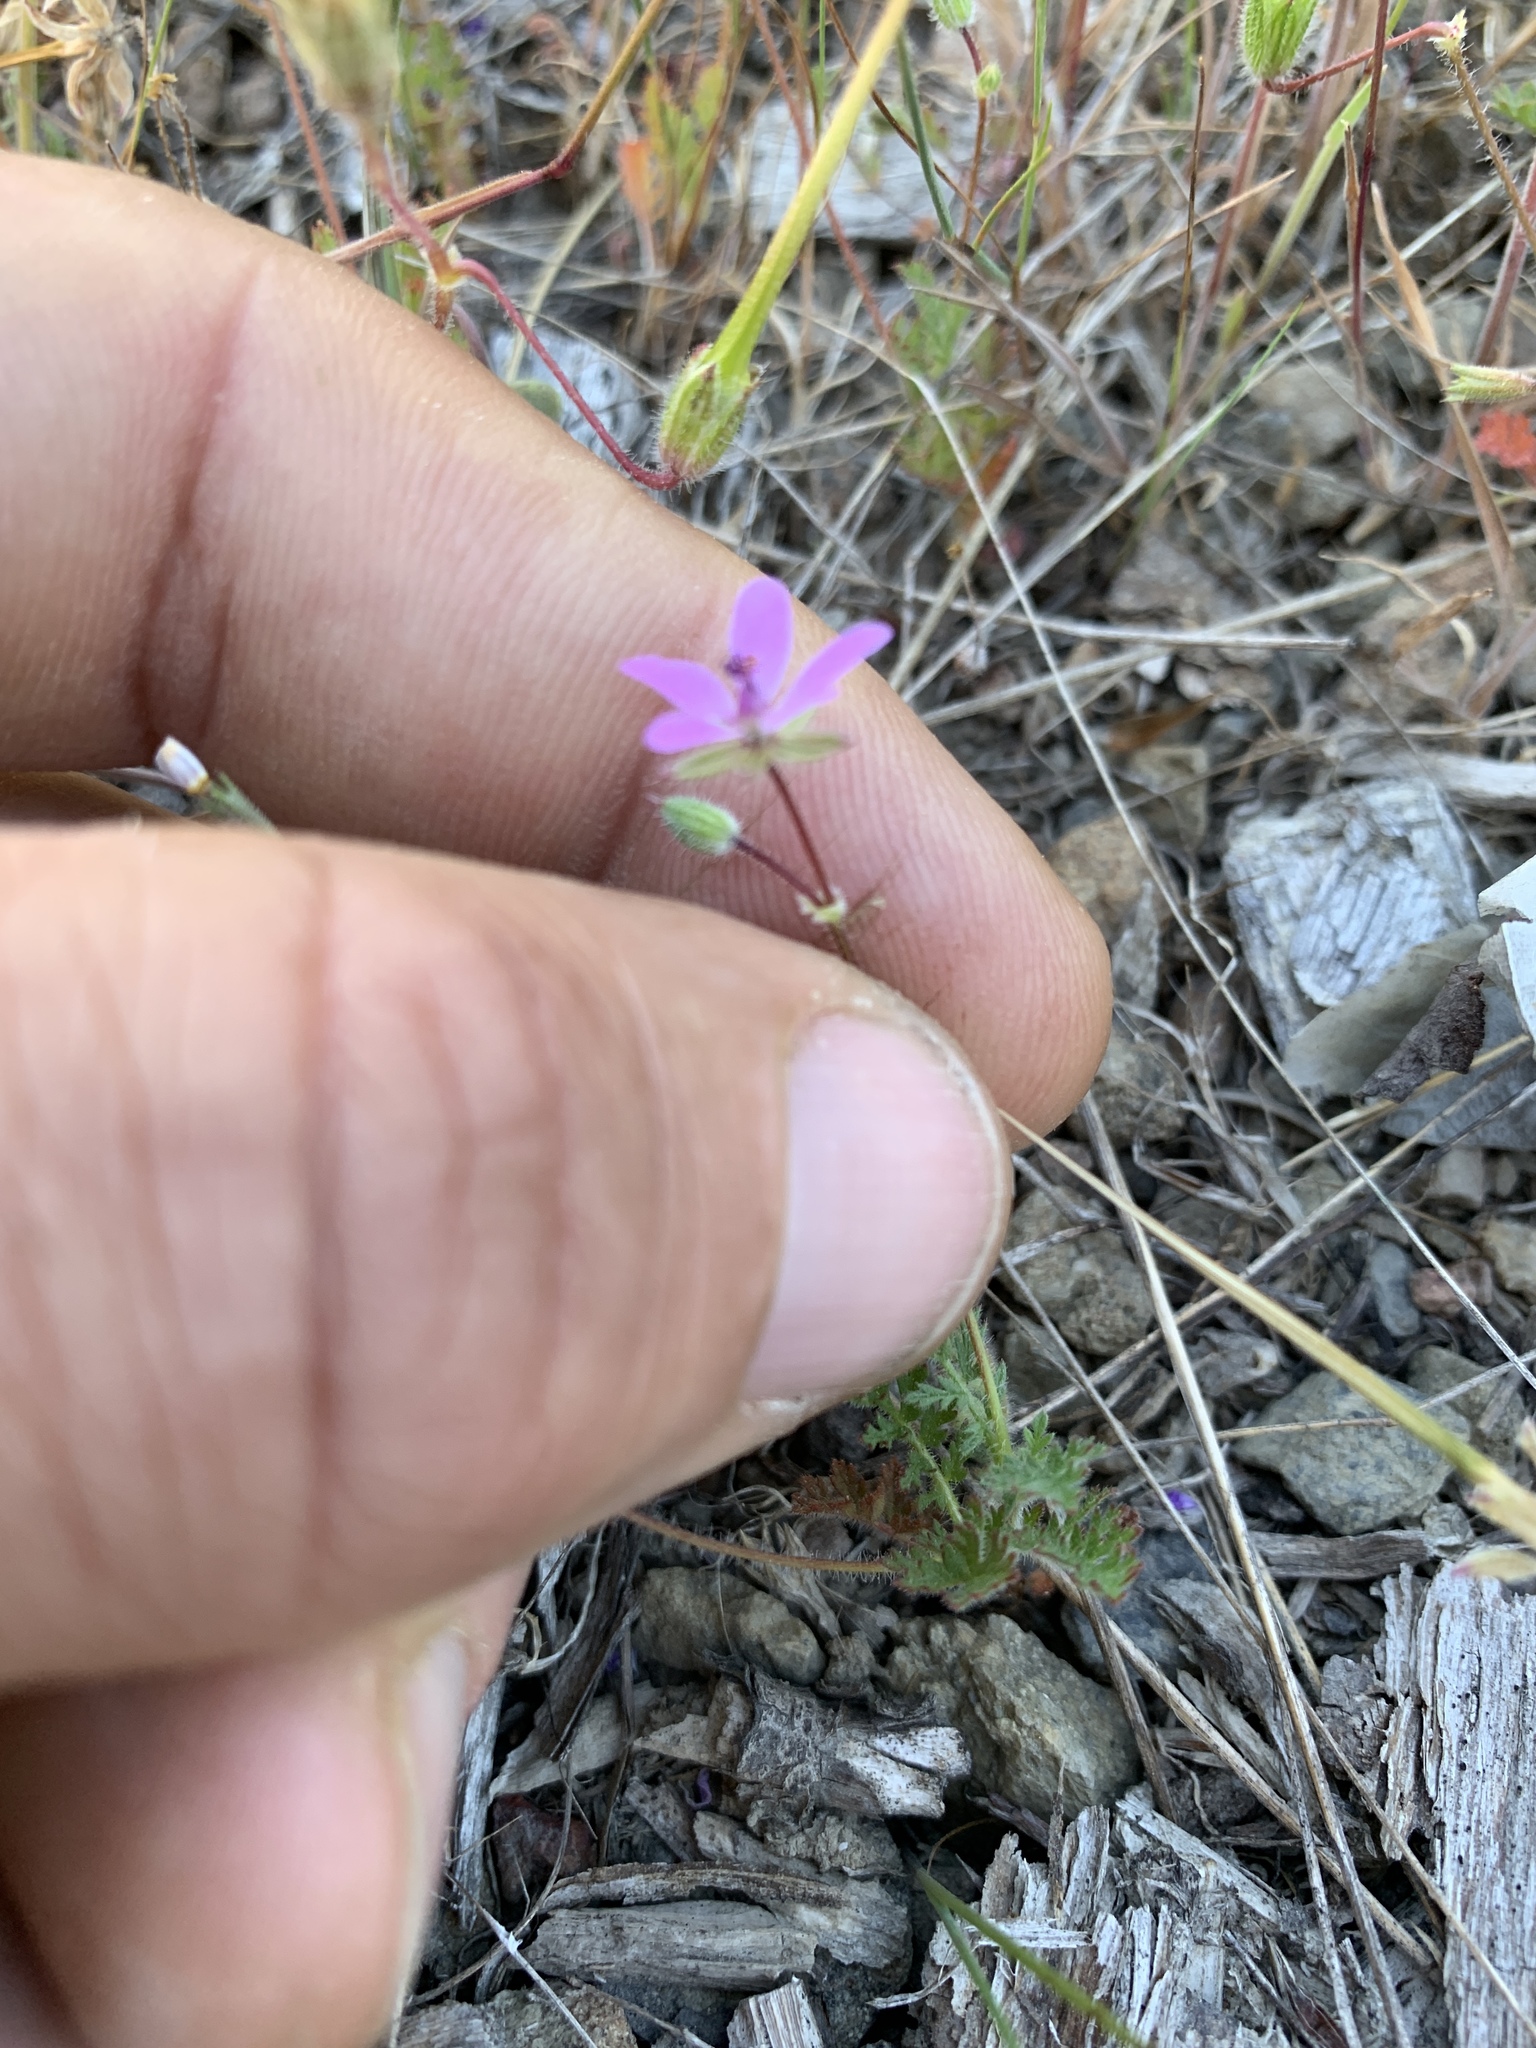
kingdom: Plantae
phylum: Tracheophyta
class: Magnoliopsida
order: Geraniales
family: Geraniaceae
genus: Erodium
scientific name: Erodium cicutarium
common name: Common stork's-bill
